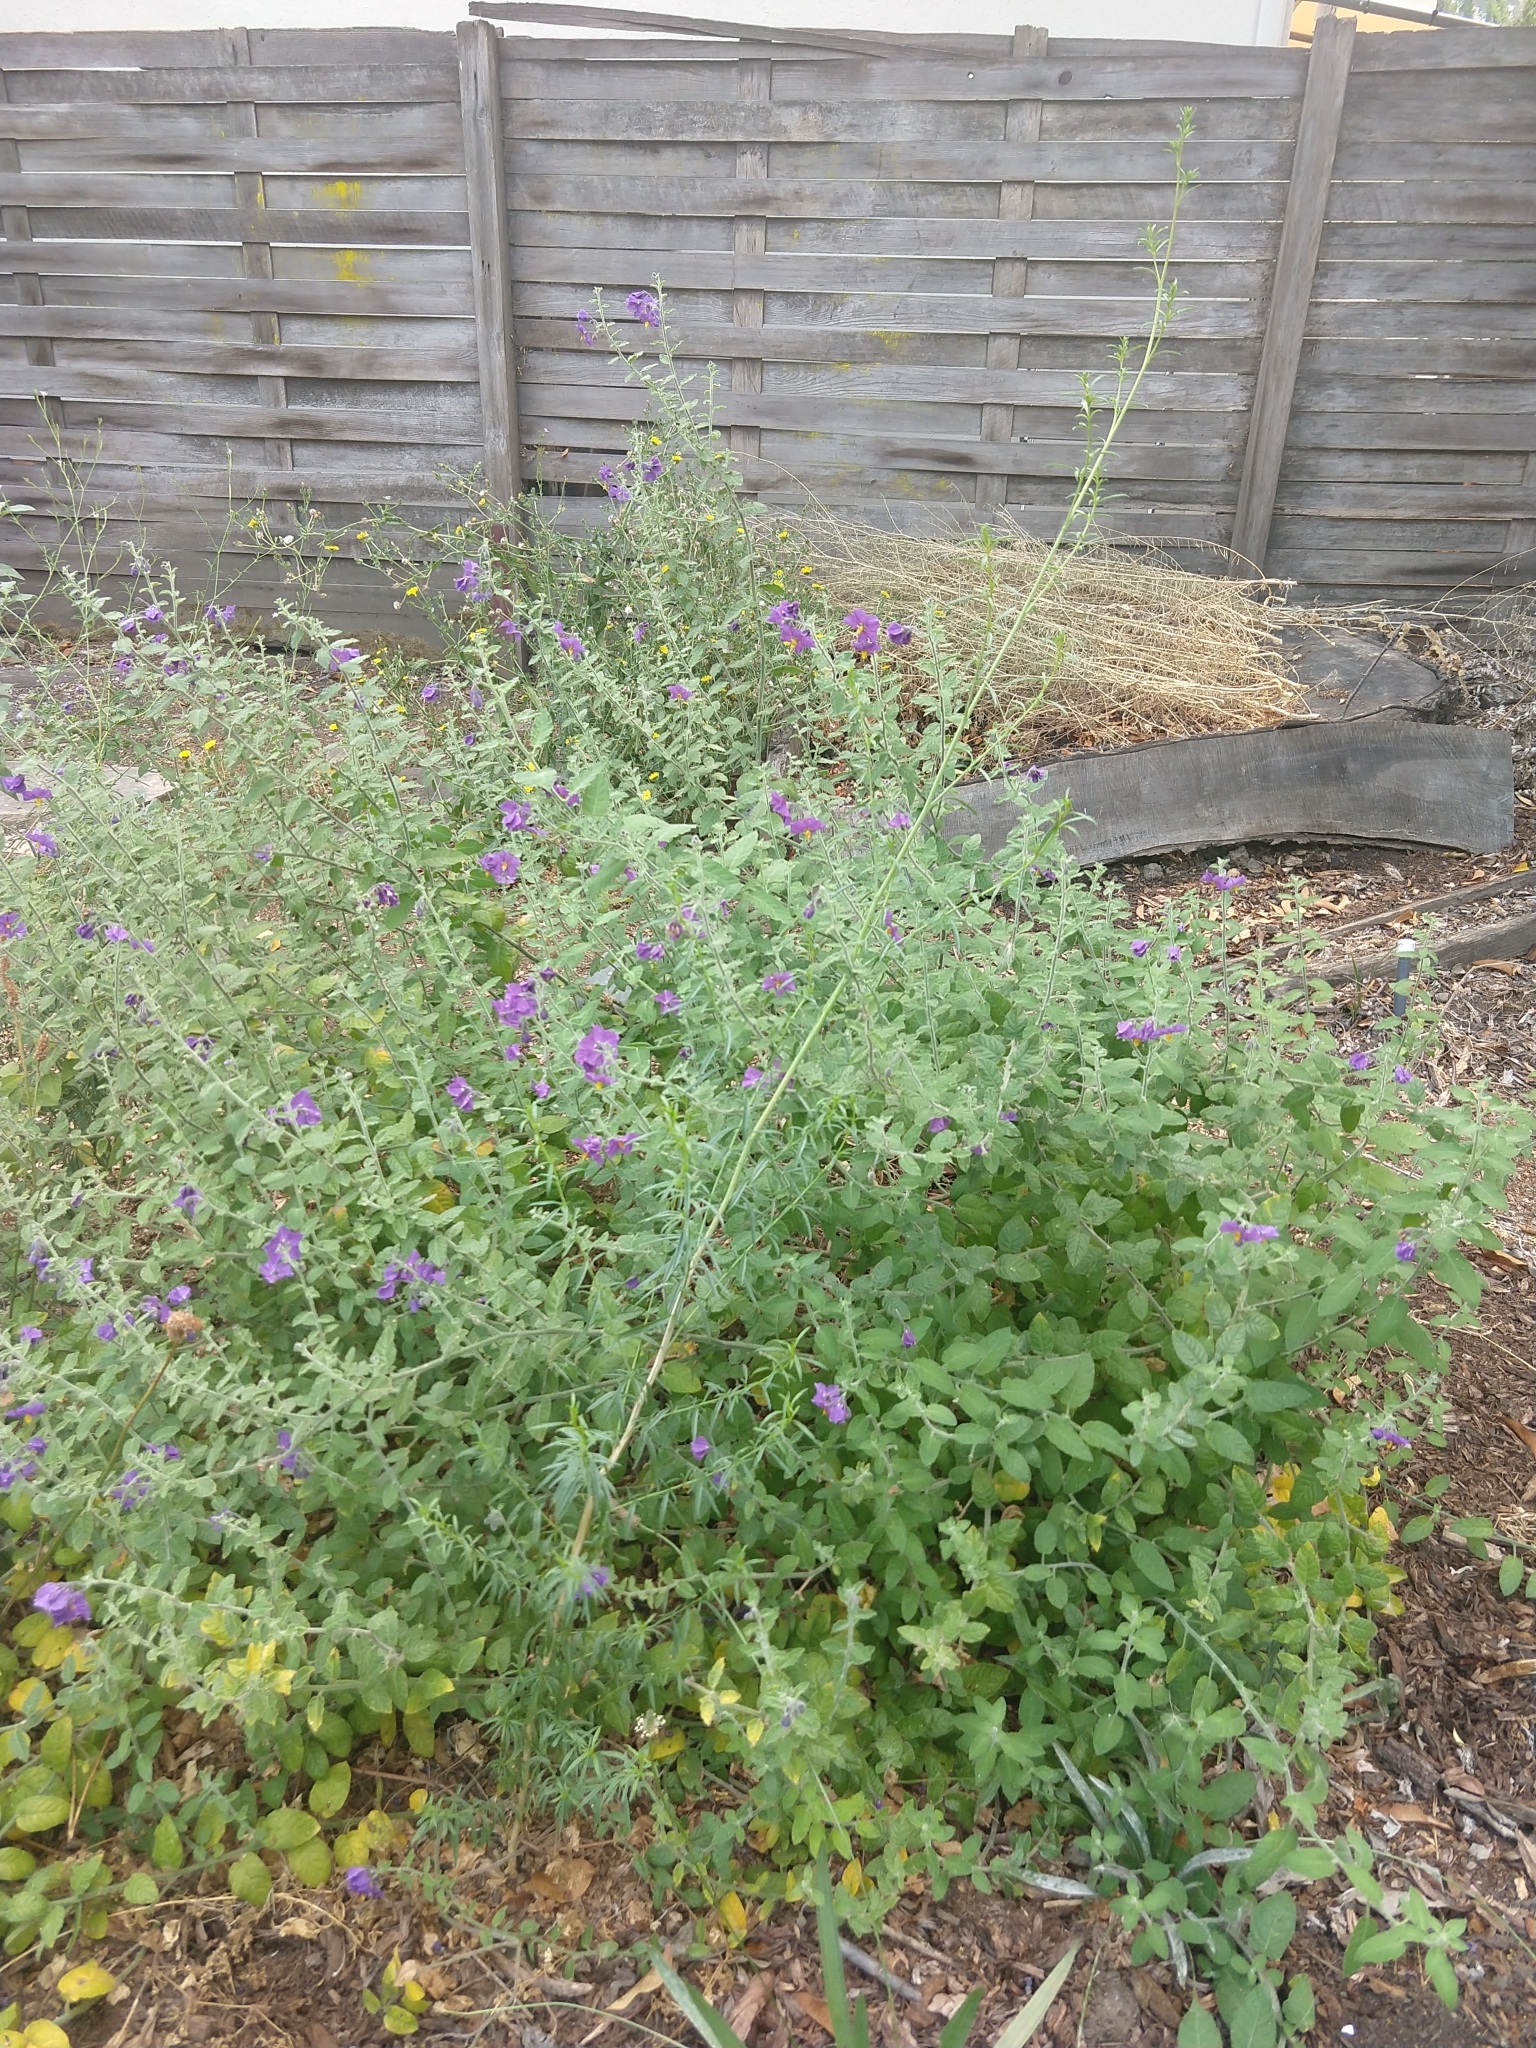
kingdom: Plantae
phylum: Tracheophyta
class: Magnoliopsida
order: Myrtales
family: Onagraceae
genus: Epilobium
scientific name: Epilobium brachycarpum
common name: Annual willowherb
